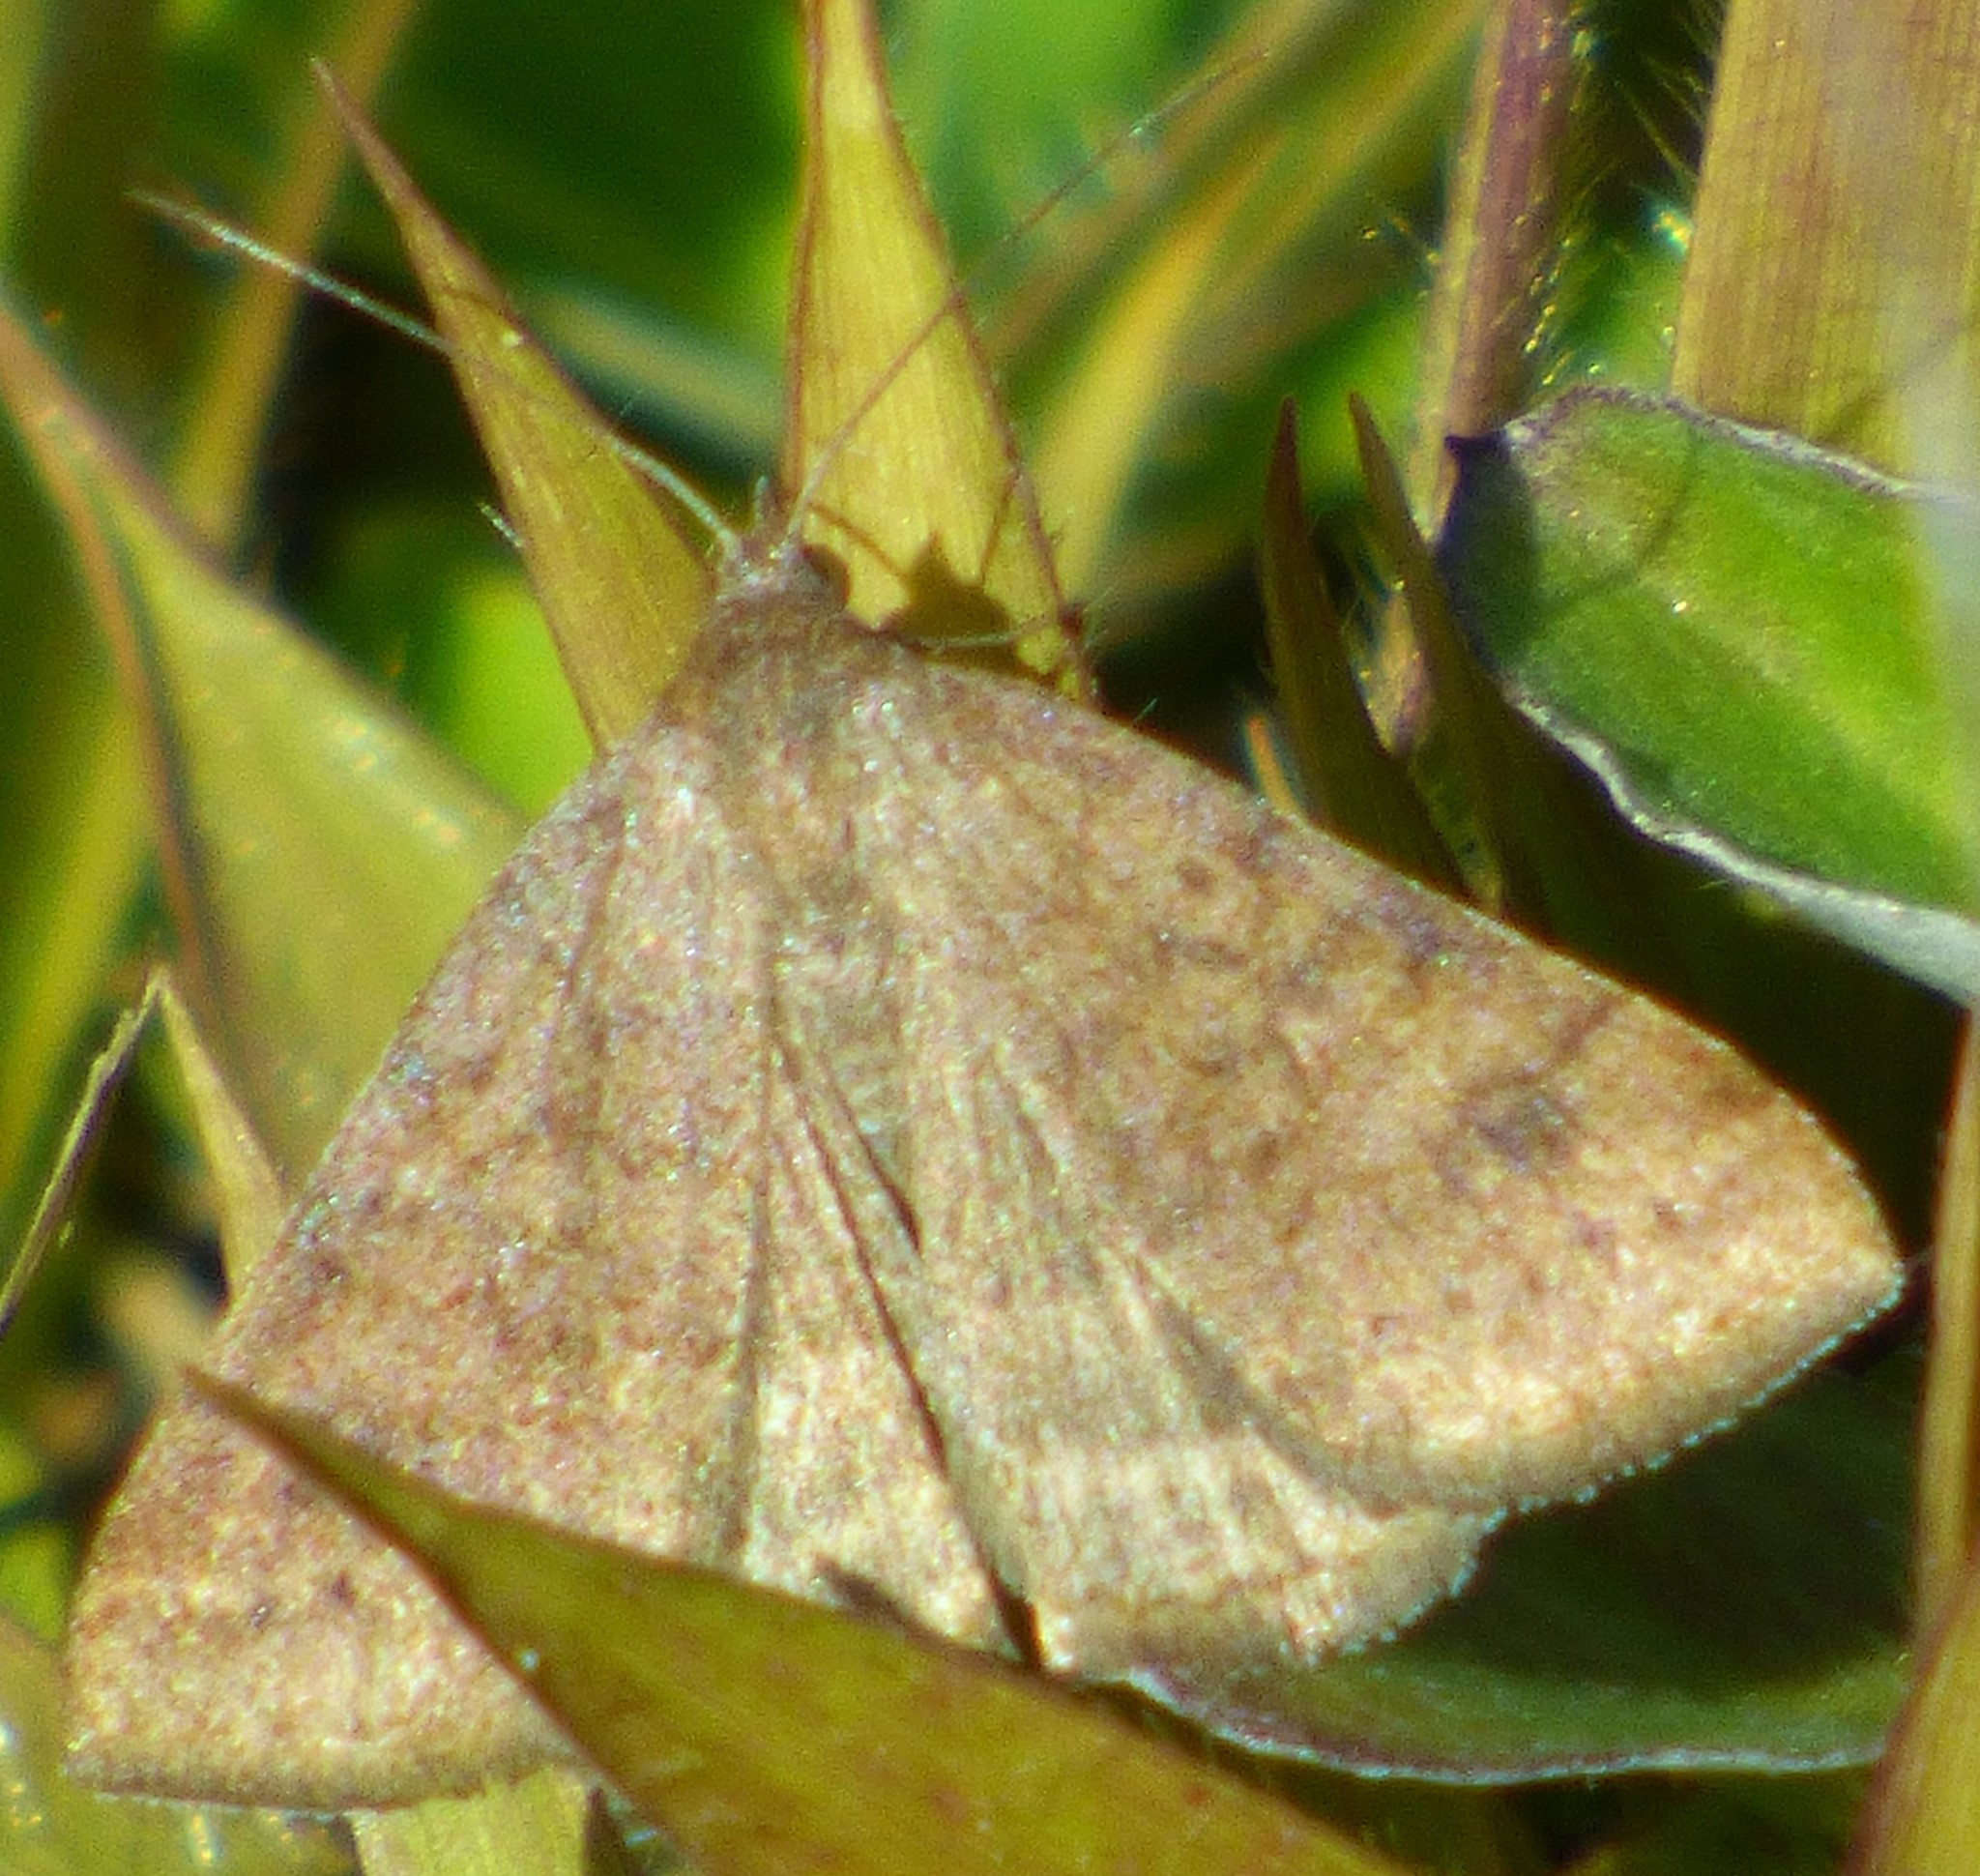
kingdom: Animalia
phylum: Arthropoda
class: Insecta
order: Lepidoptera
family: Erebidae
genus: Caenurgia
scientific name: Caenurgia chloropha
